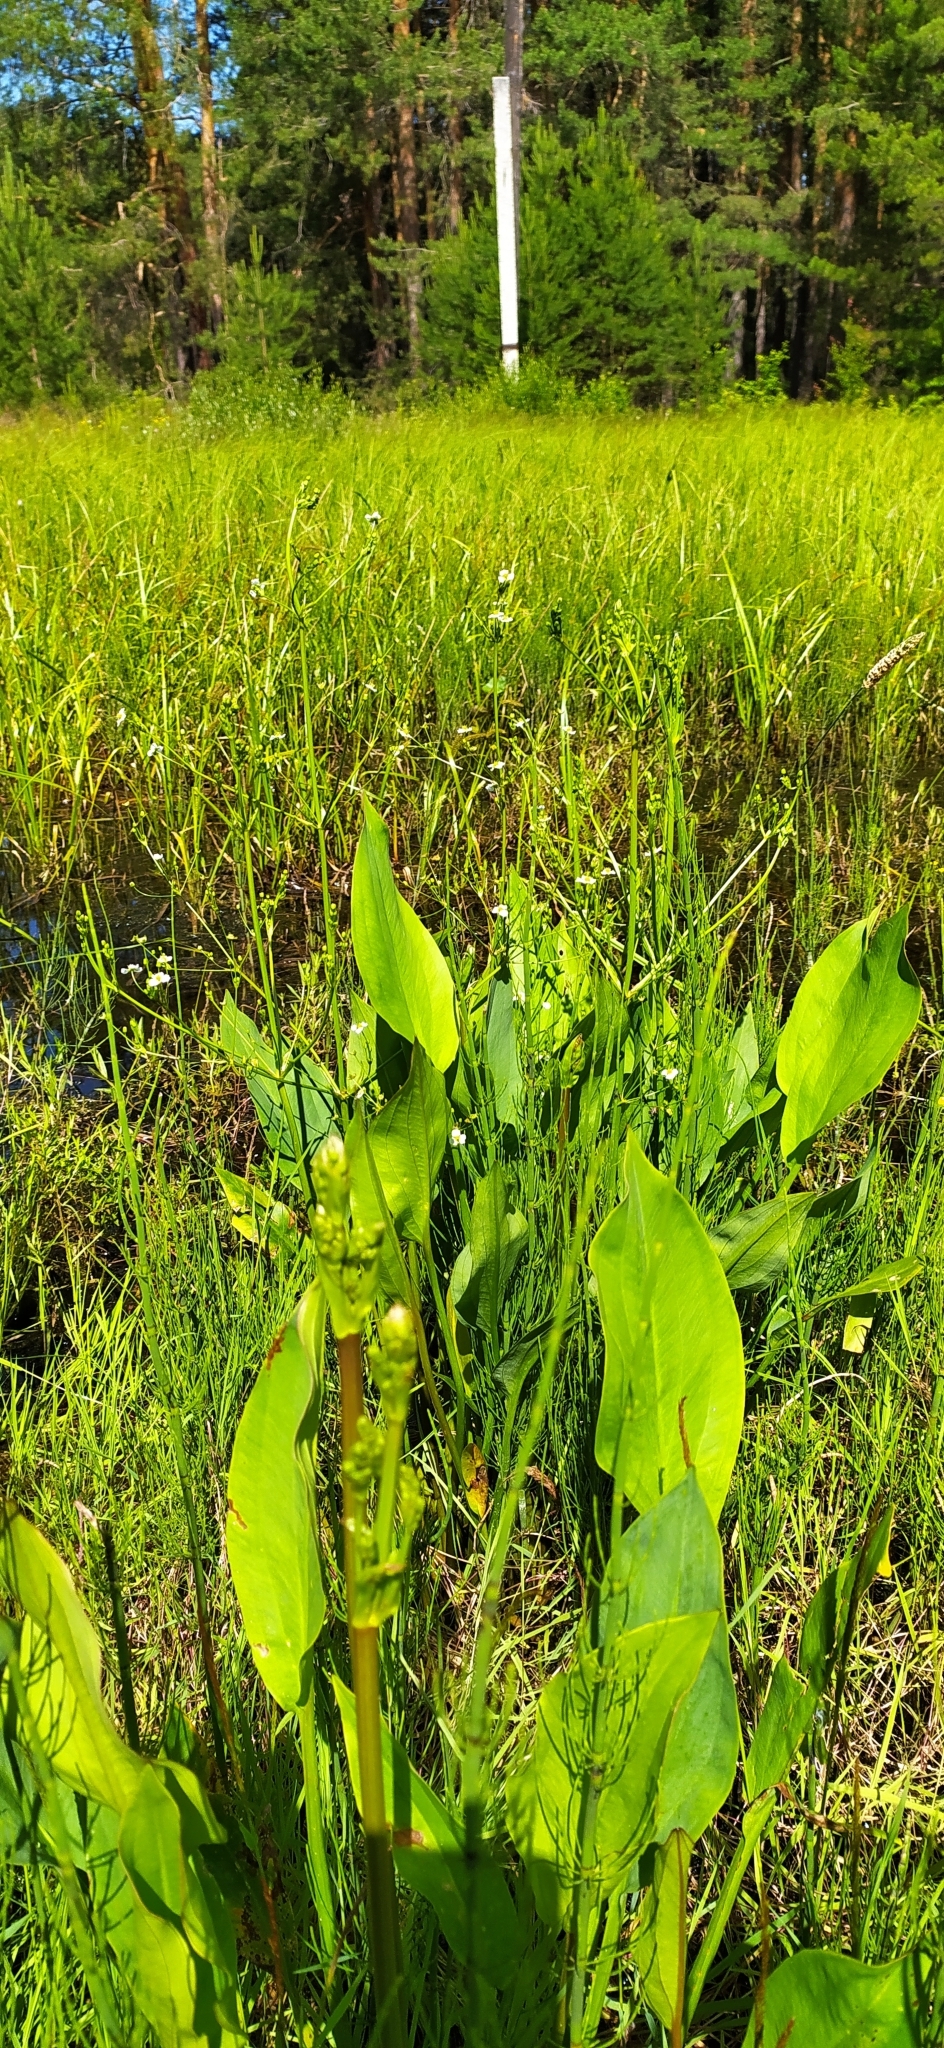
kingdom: Plantae
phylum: Tracheophyta
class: Liliopsida
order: Alismatales
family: Alismataceae
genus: Alisma
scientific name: Alisma plantago-aquatica
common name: Water-plantain
